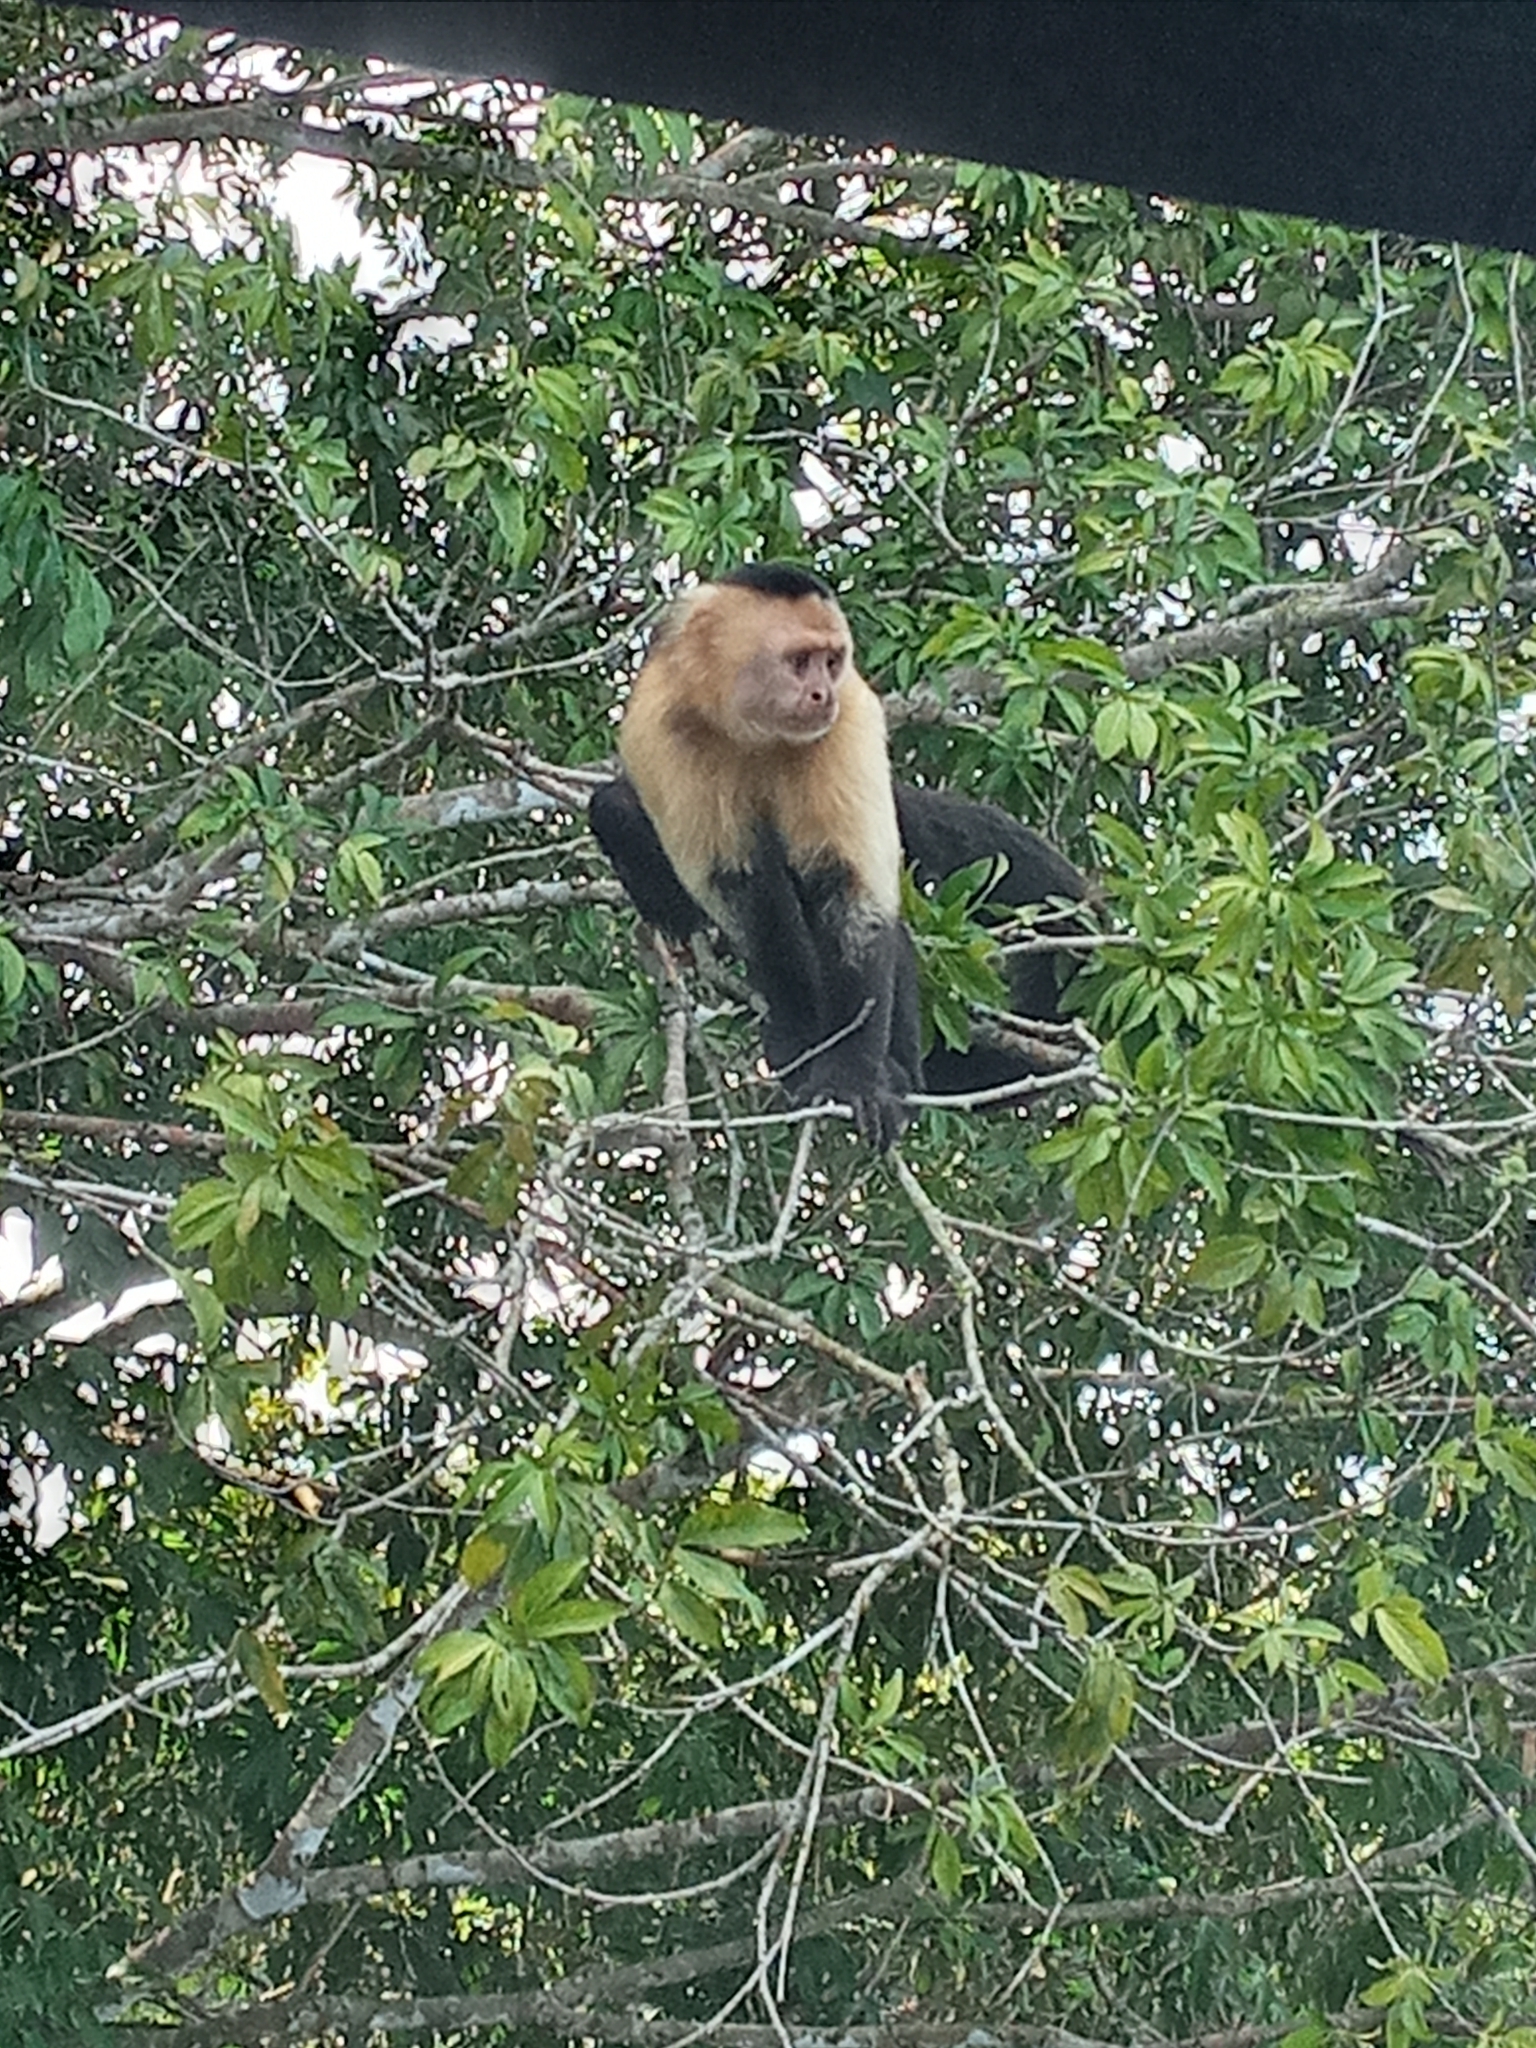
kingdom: Animalia
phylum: Chordata
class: Mammalia
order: Primates
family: Cebidae
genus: Cebus
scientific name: Cebus capucinus
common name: White-headed capuchin
